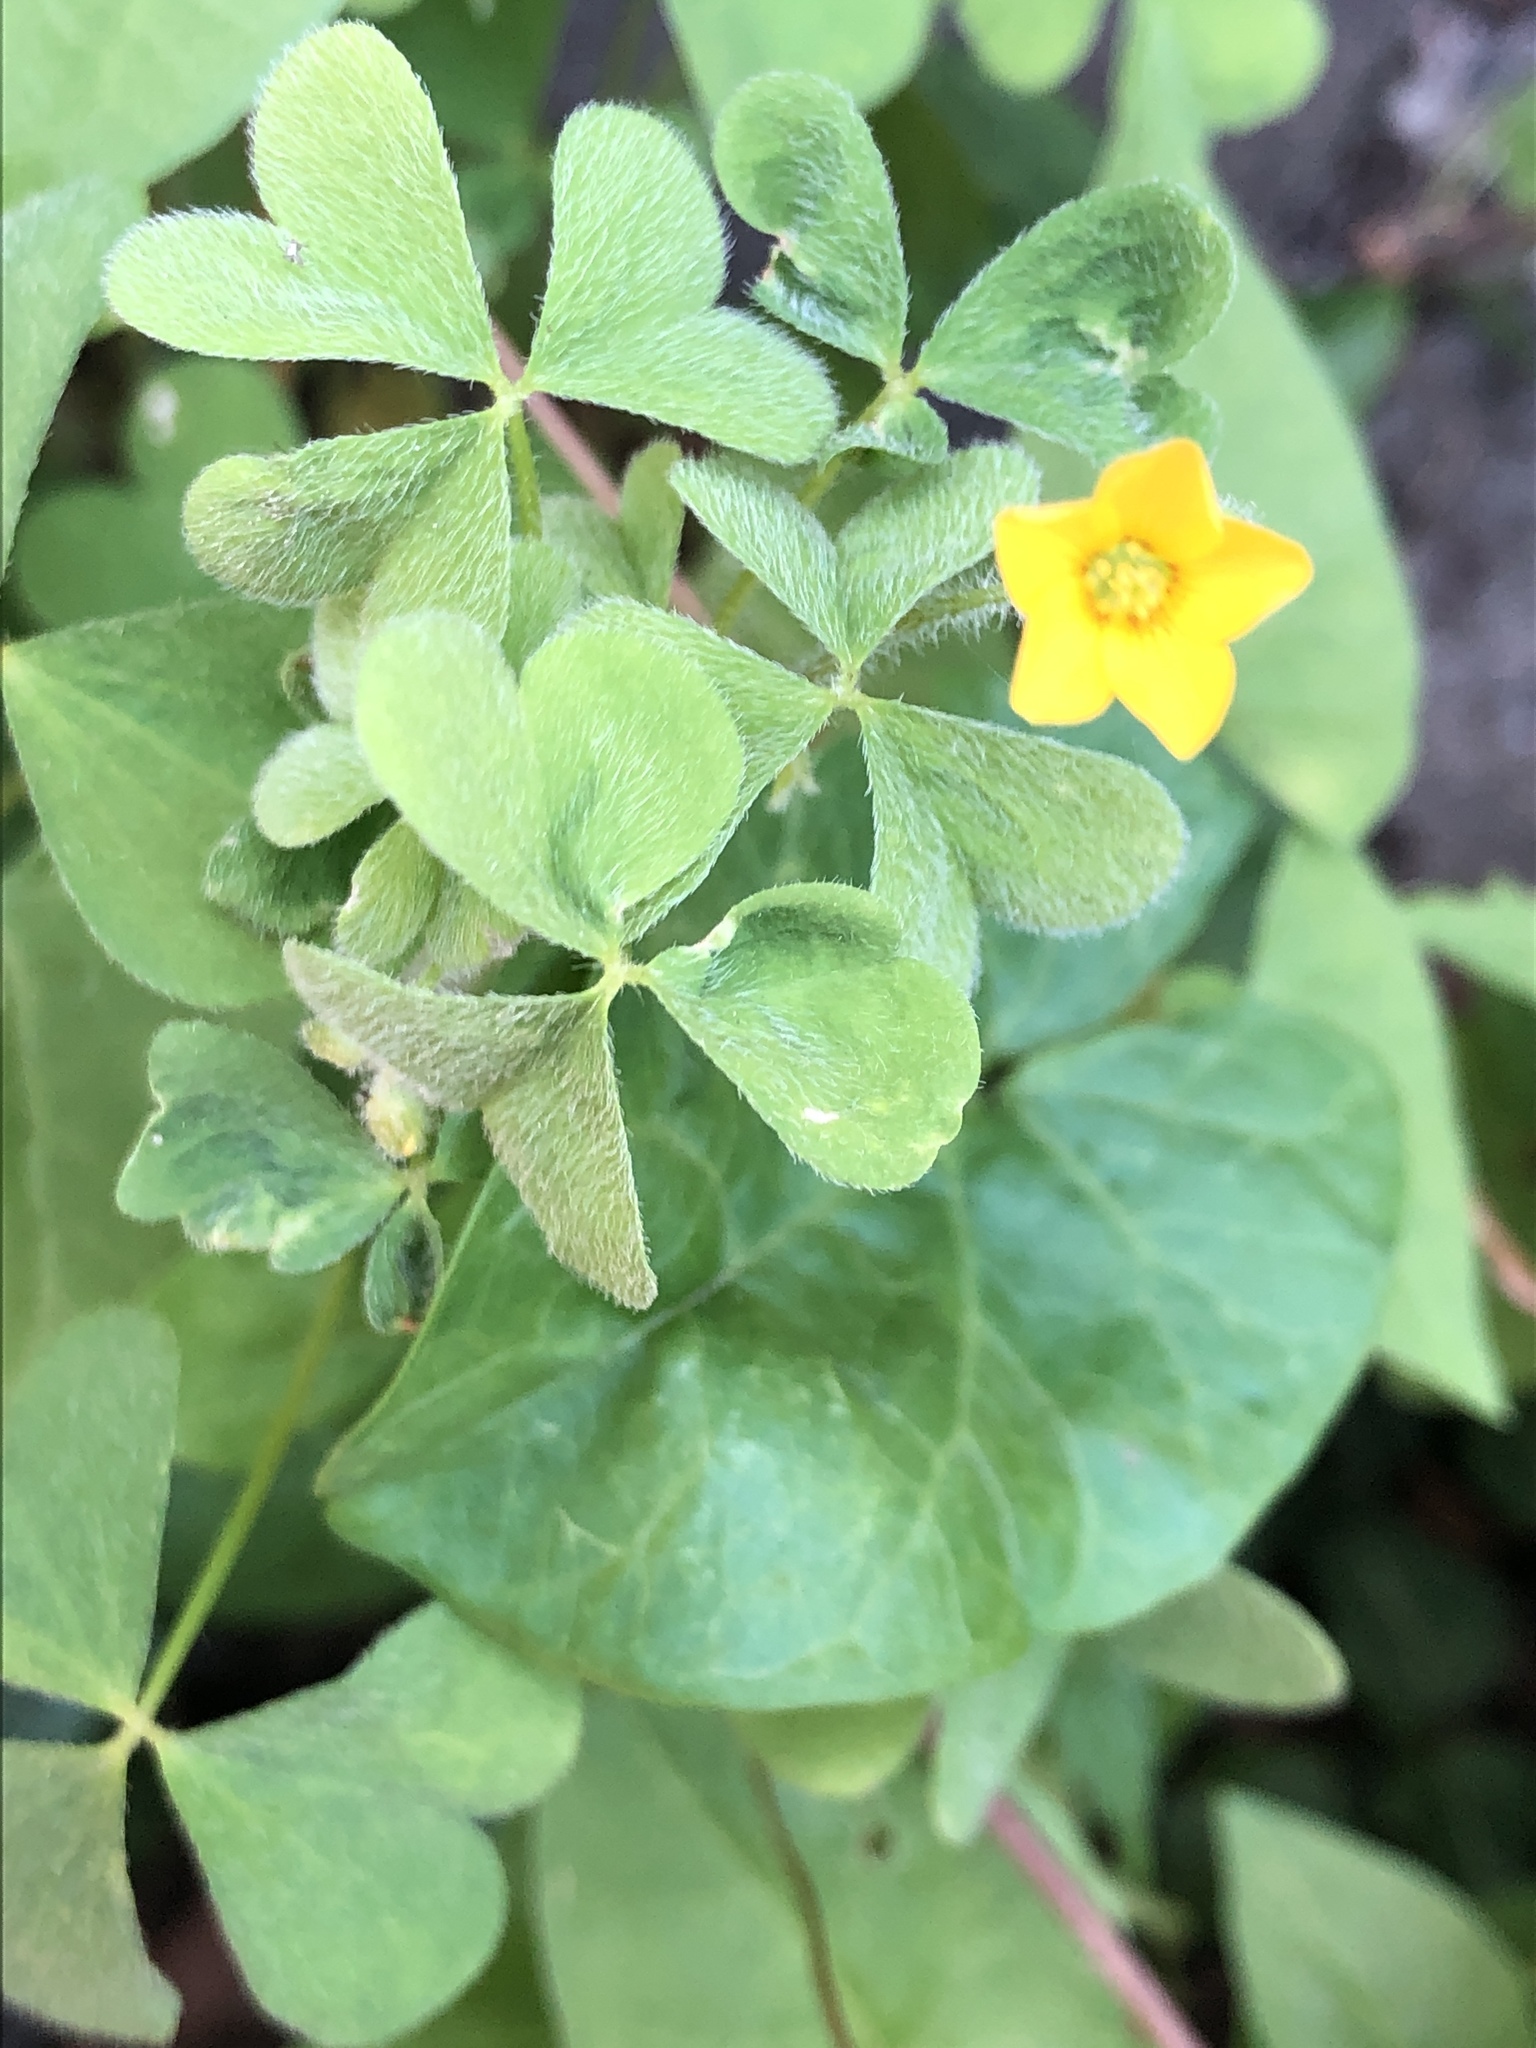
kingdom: Plantae
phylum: Tracheophyta
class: Magnoliopsida
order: Oxalidales
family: Oxalidaceae
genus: Oxalis
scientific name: Oxalis stricta
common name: Upright yellow-sorrel
